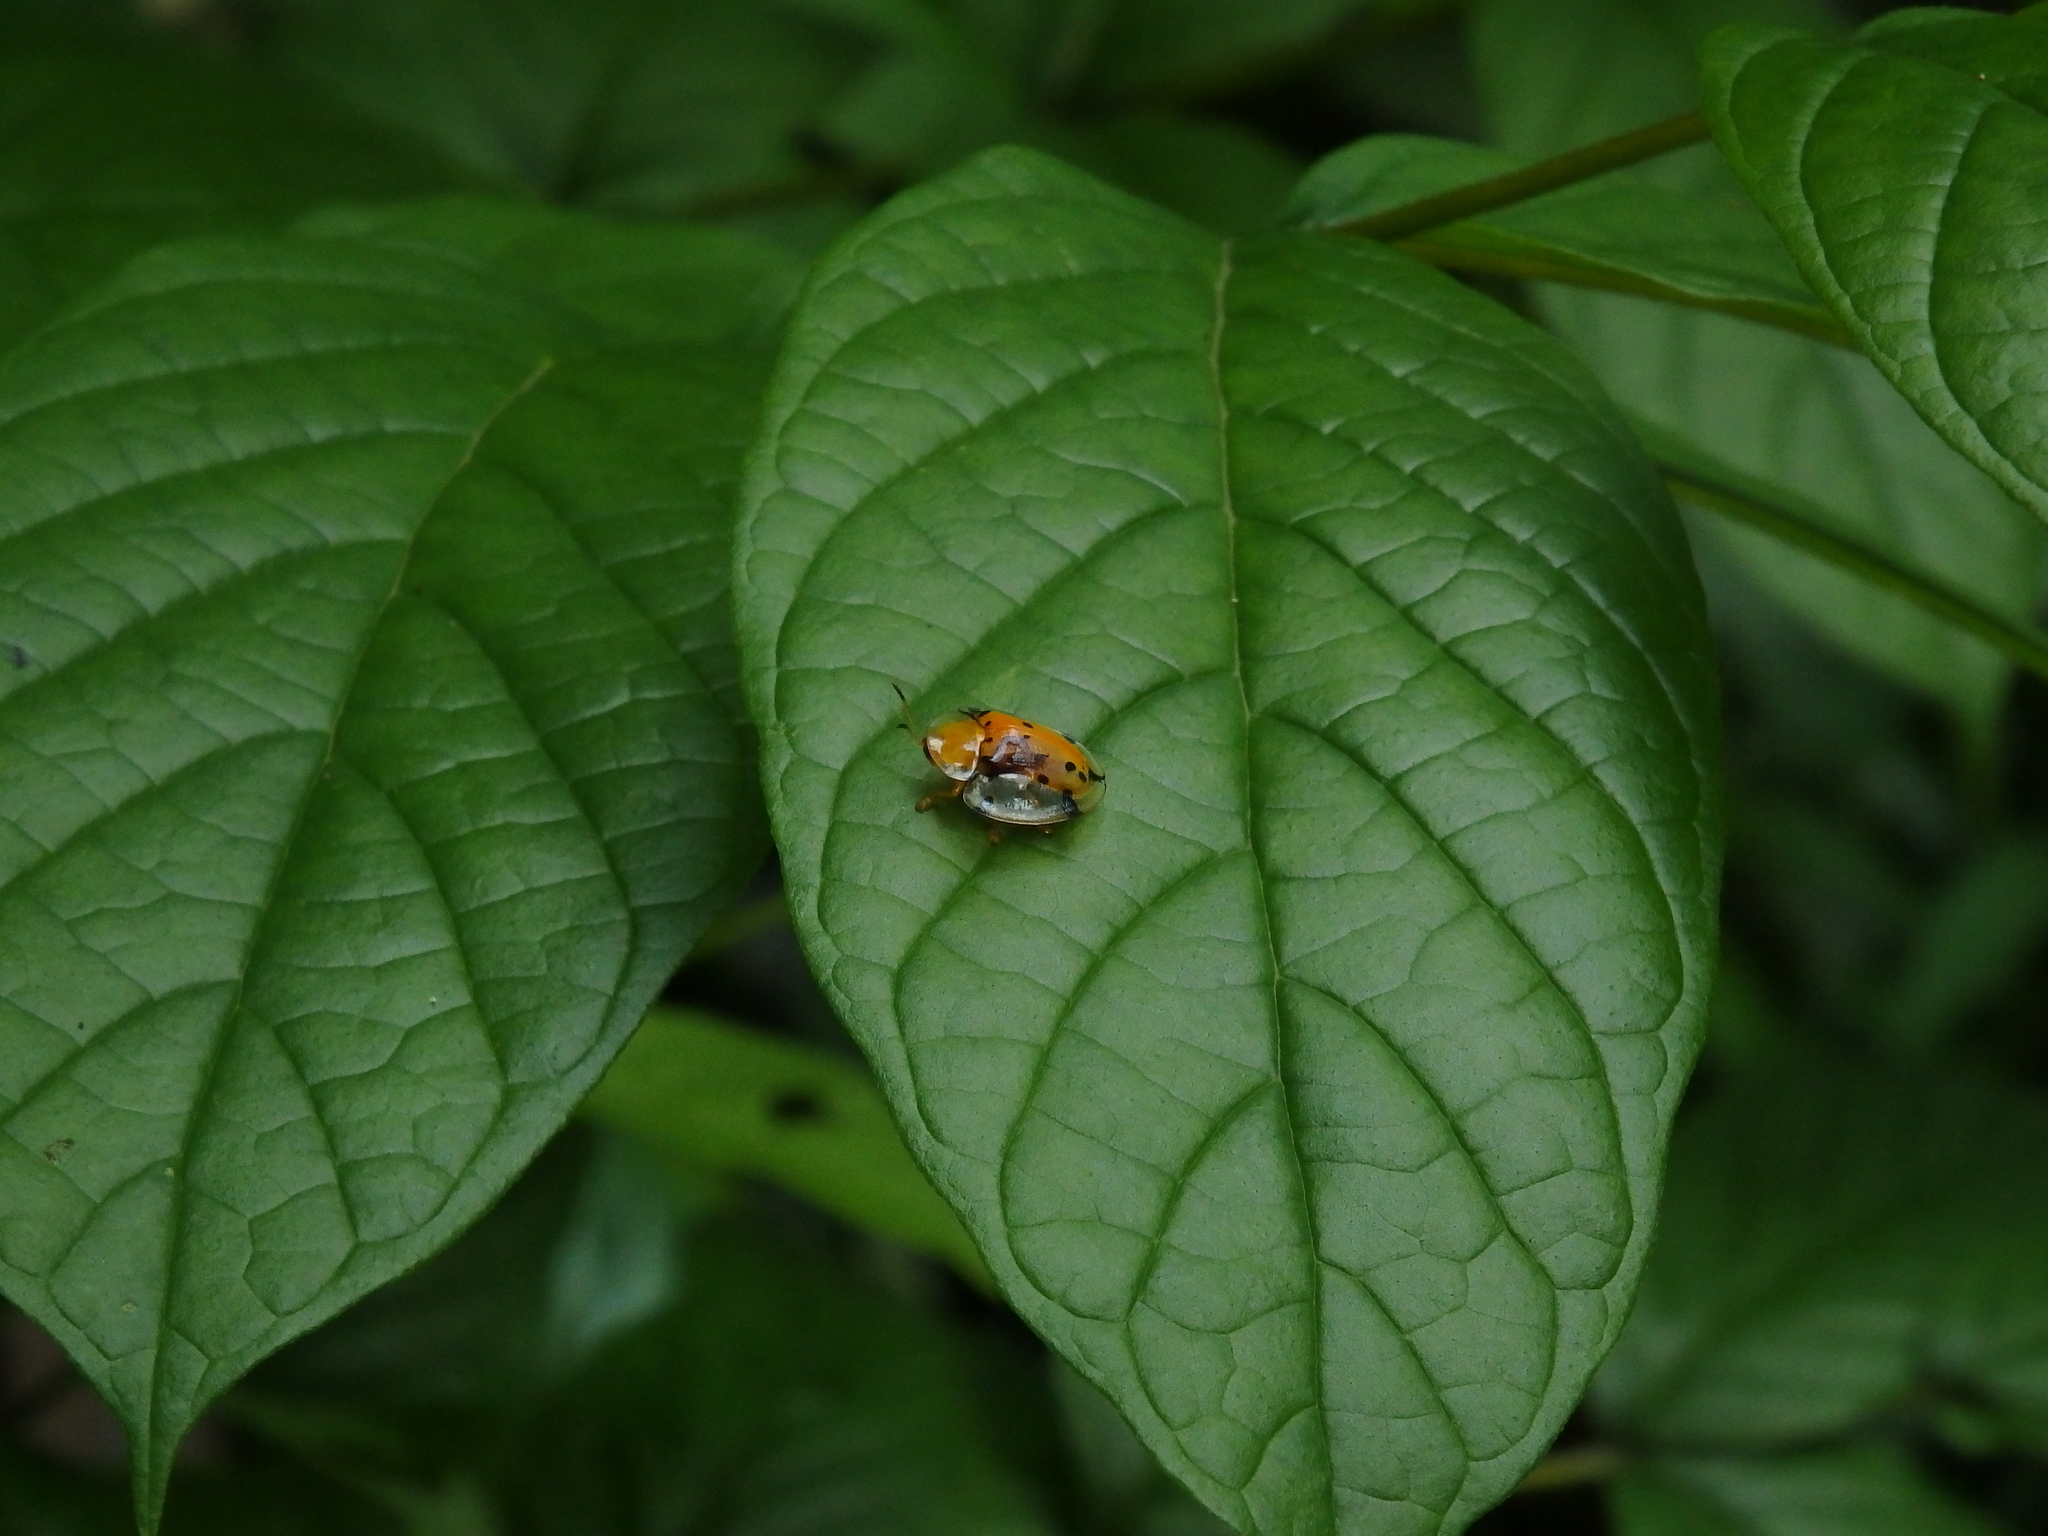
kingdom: Animalia
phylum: Arthropoda
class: Insecta
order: Coleoptera
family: Chrysomelidae
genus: Aspidimorpha
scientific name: Aspidimorpha miliaris
